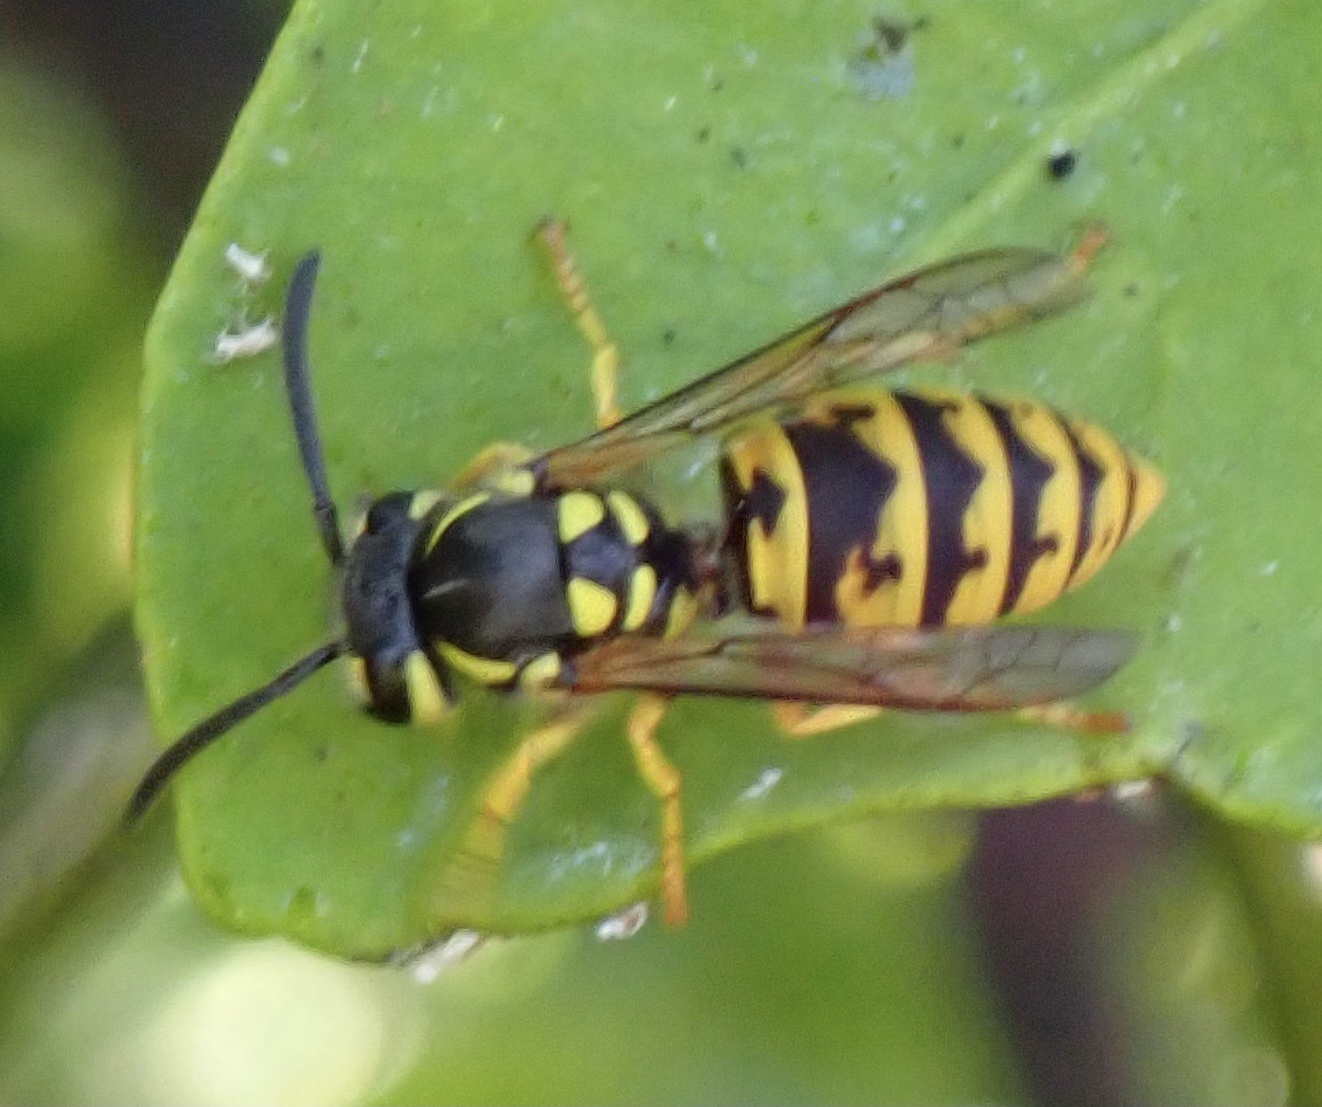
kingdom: Animalia
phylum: Arthropoda
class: Insecta
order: Hymenoptera
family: Vespidae
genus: Vespula
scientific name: Vespula germanica
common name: German wasp
